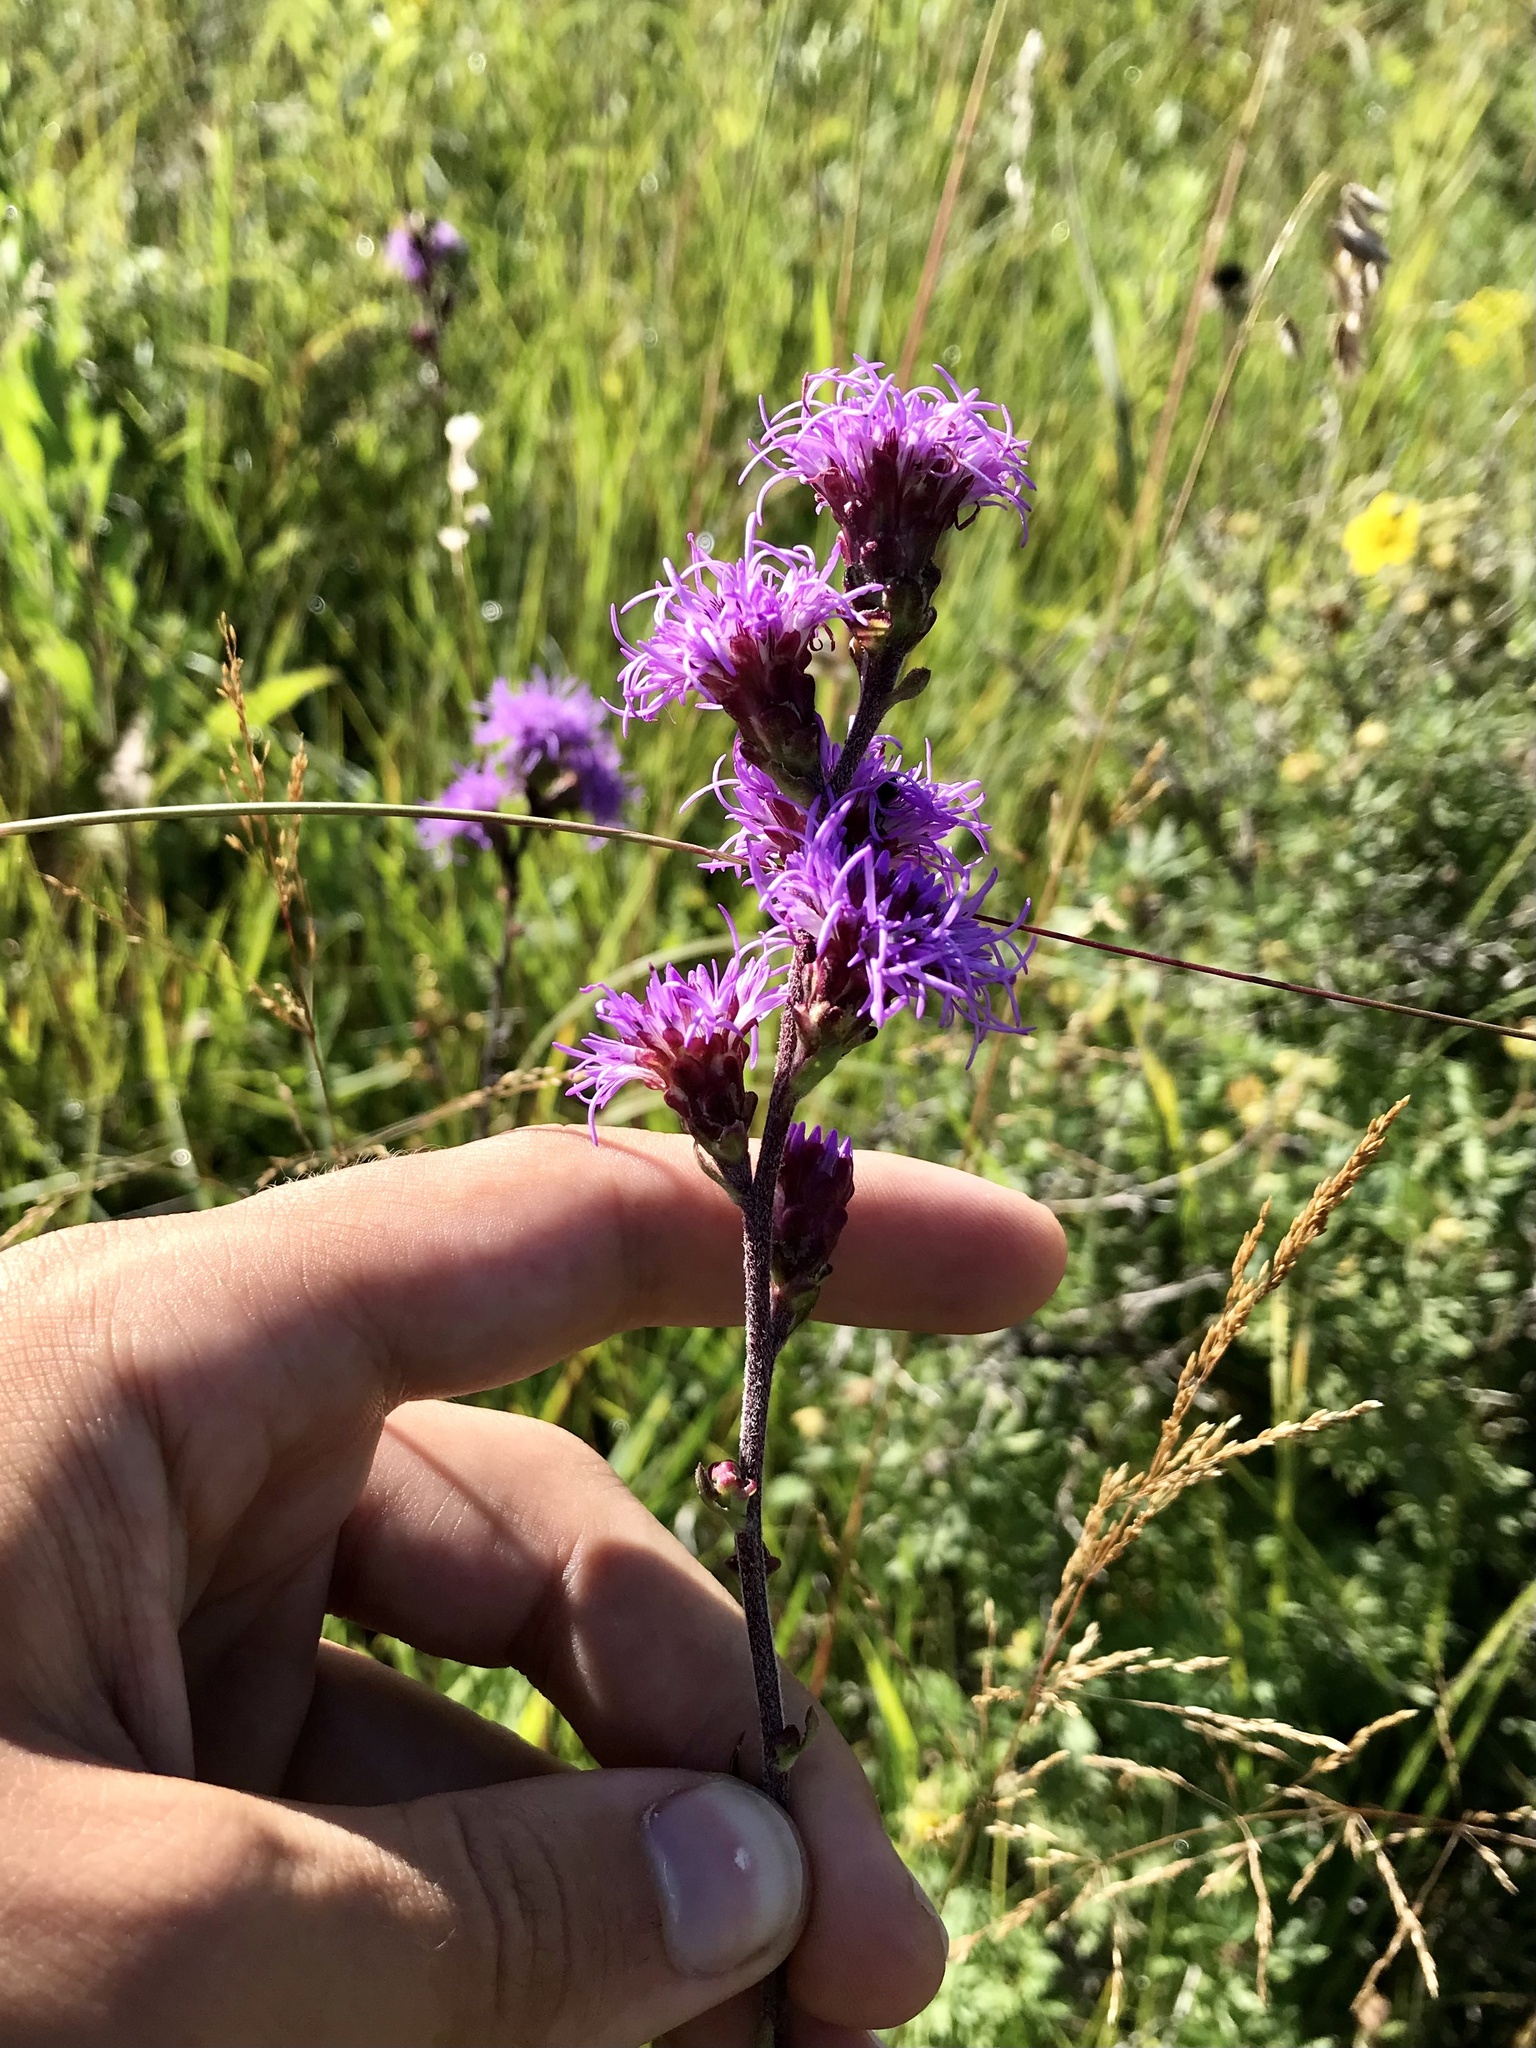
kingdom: Plantae
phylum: Tracheophyta
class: Magnoliopsida
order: Asterales
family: Asteraceae
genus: Liatris
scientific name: Liatris ligulistylis
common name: Northern plains gayfeather
